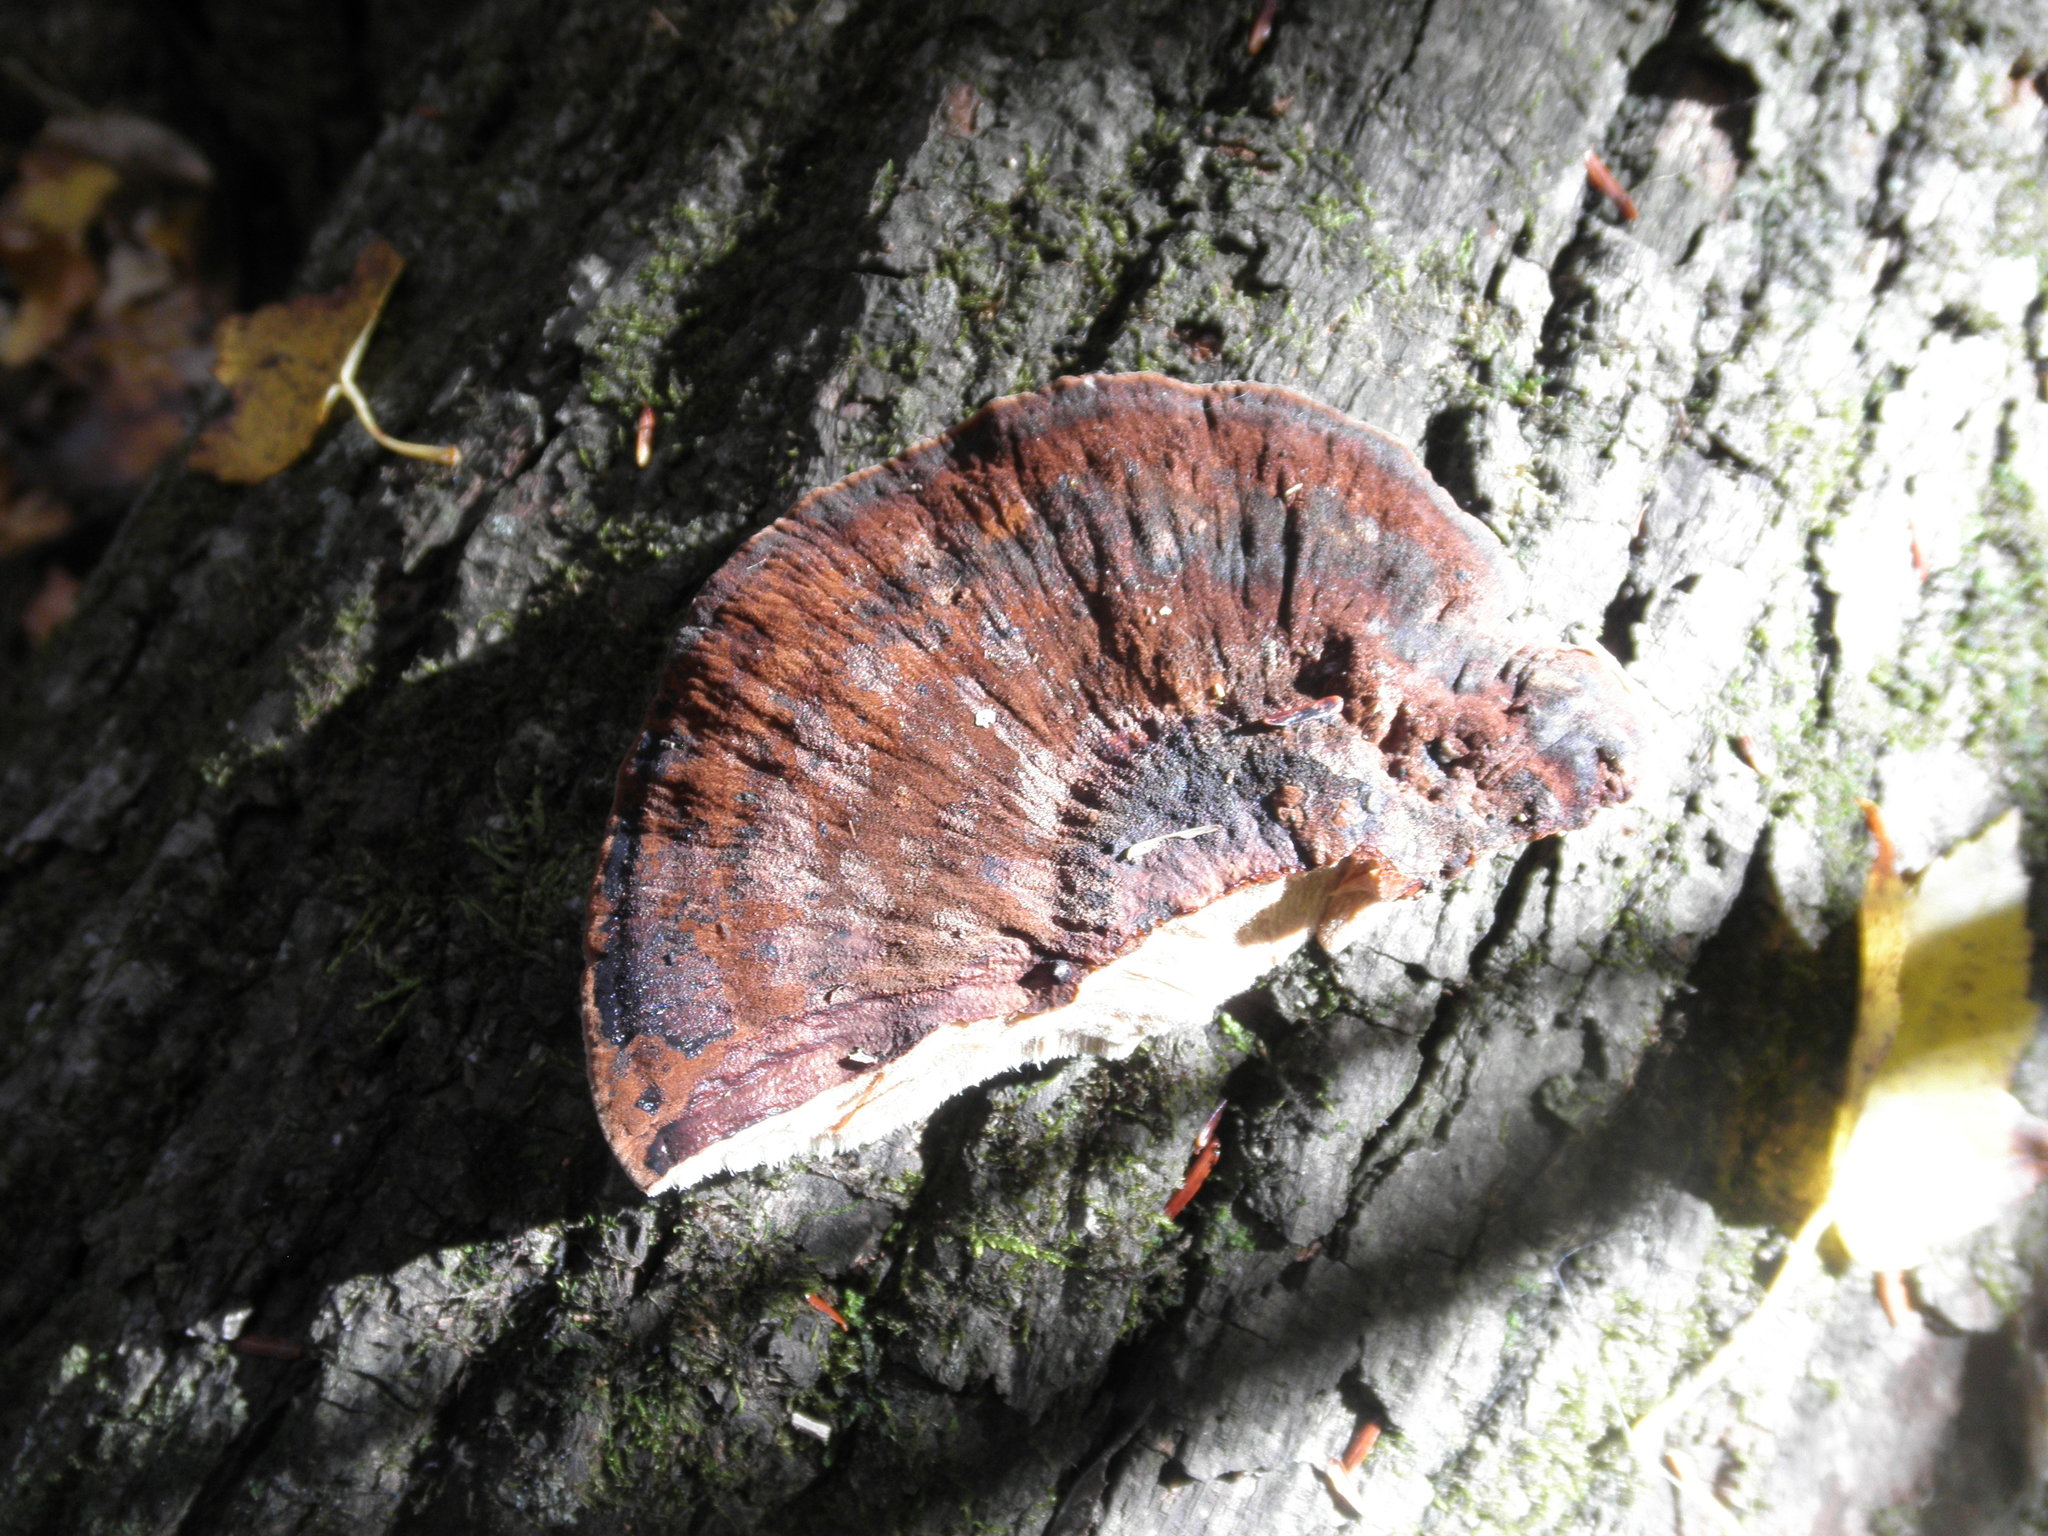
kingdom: Fungi
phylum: Basidiomycota
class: Agaricomycetes
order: Polyporales
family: Ischnodermataceae
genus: Ischnoderma
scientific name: Ischnoderma resinosum
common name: Resinous polypore
